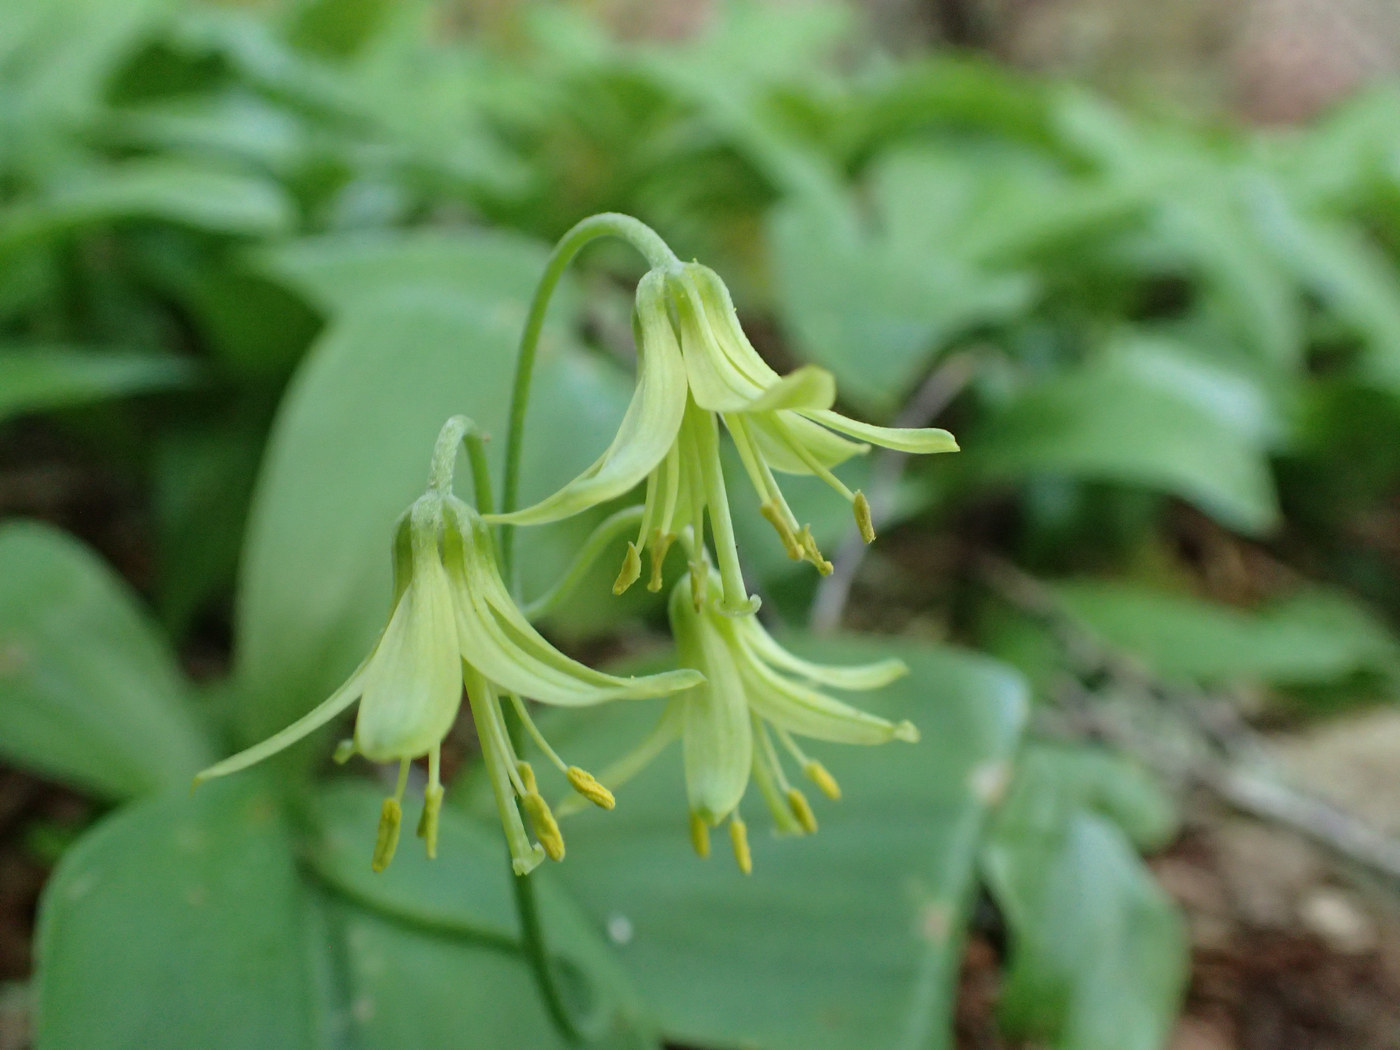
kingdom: Plantae
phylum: Tracheophyta
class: Liliopsida
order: Liliales
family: Liliaceae
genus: Clintonia
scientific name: Clintonia borealis
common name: Yellow clintonia
